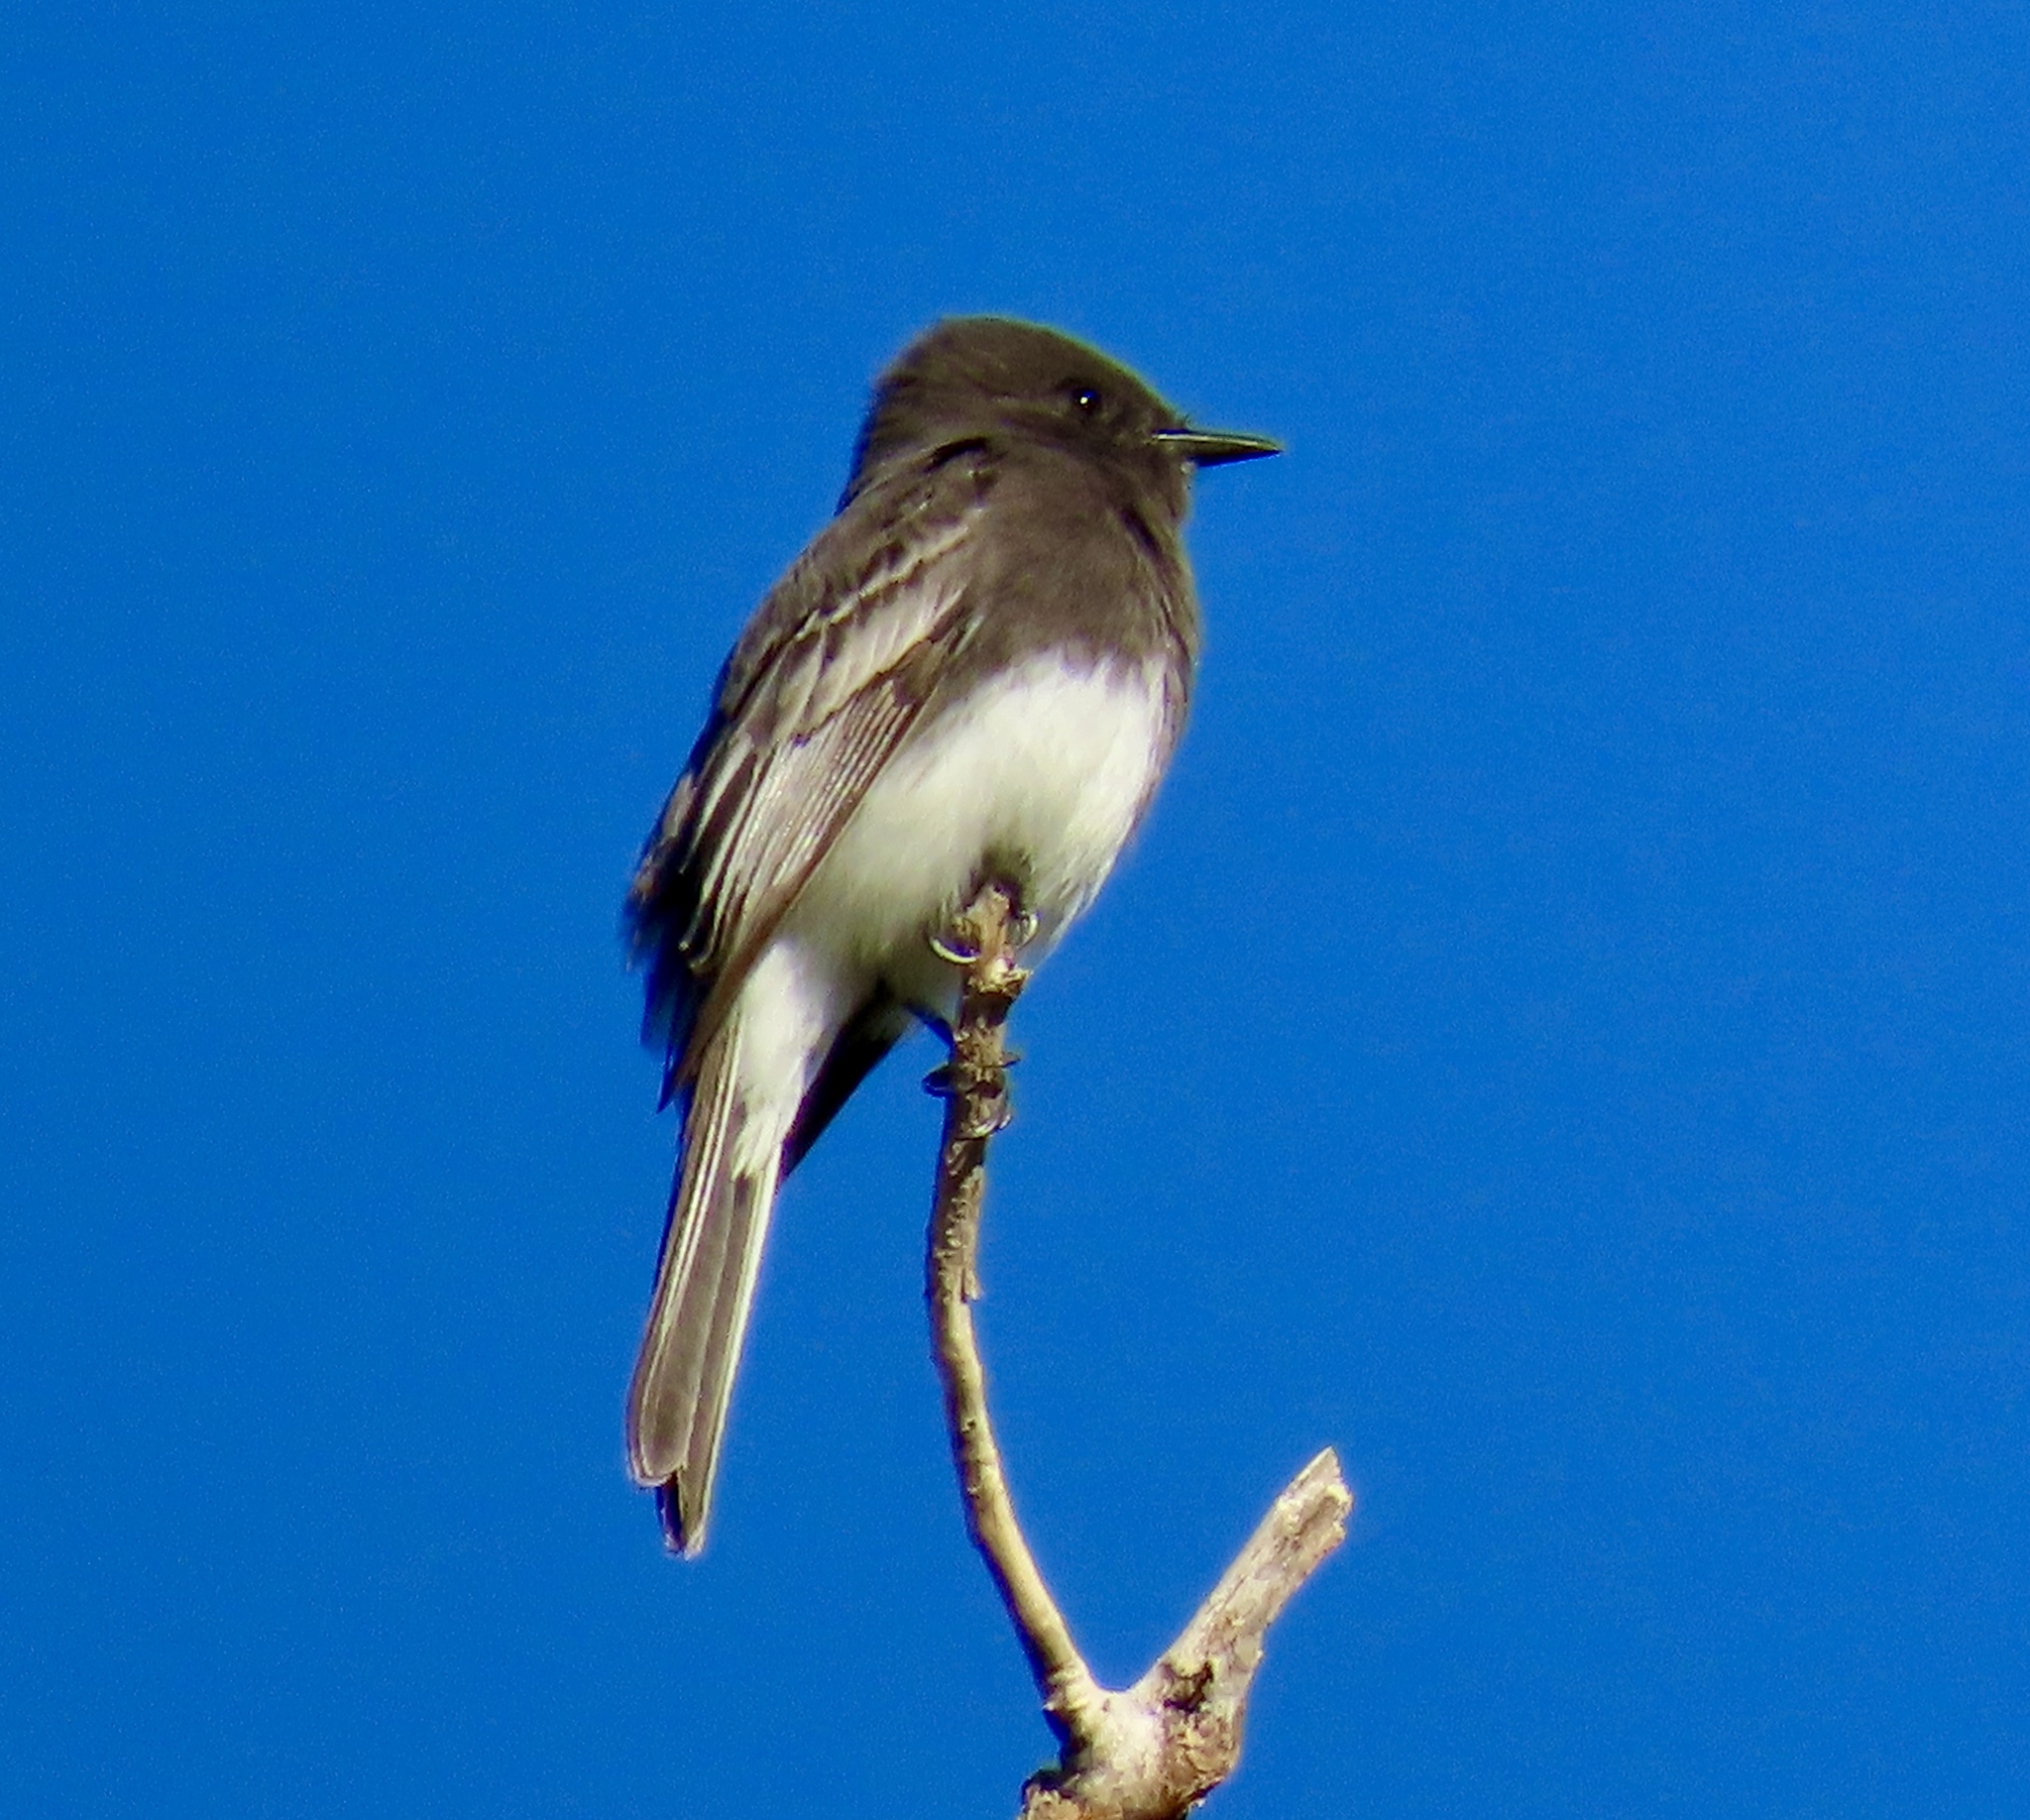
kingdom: Animalia
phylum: Chordata
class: Aves
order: Passeriformes
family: Tyrannidae
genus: Sayornis
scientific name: Sayornis nigricans
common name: Black phoebe
